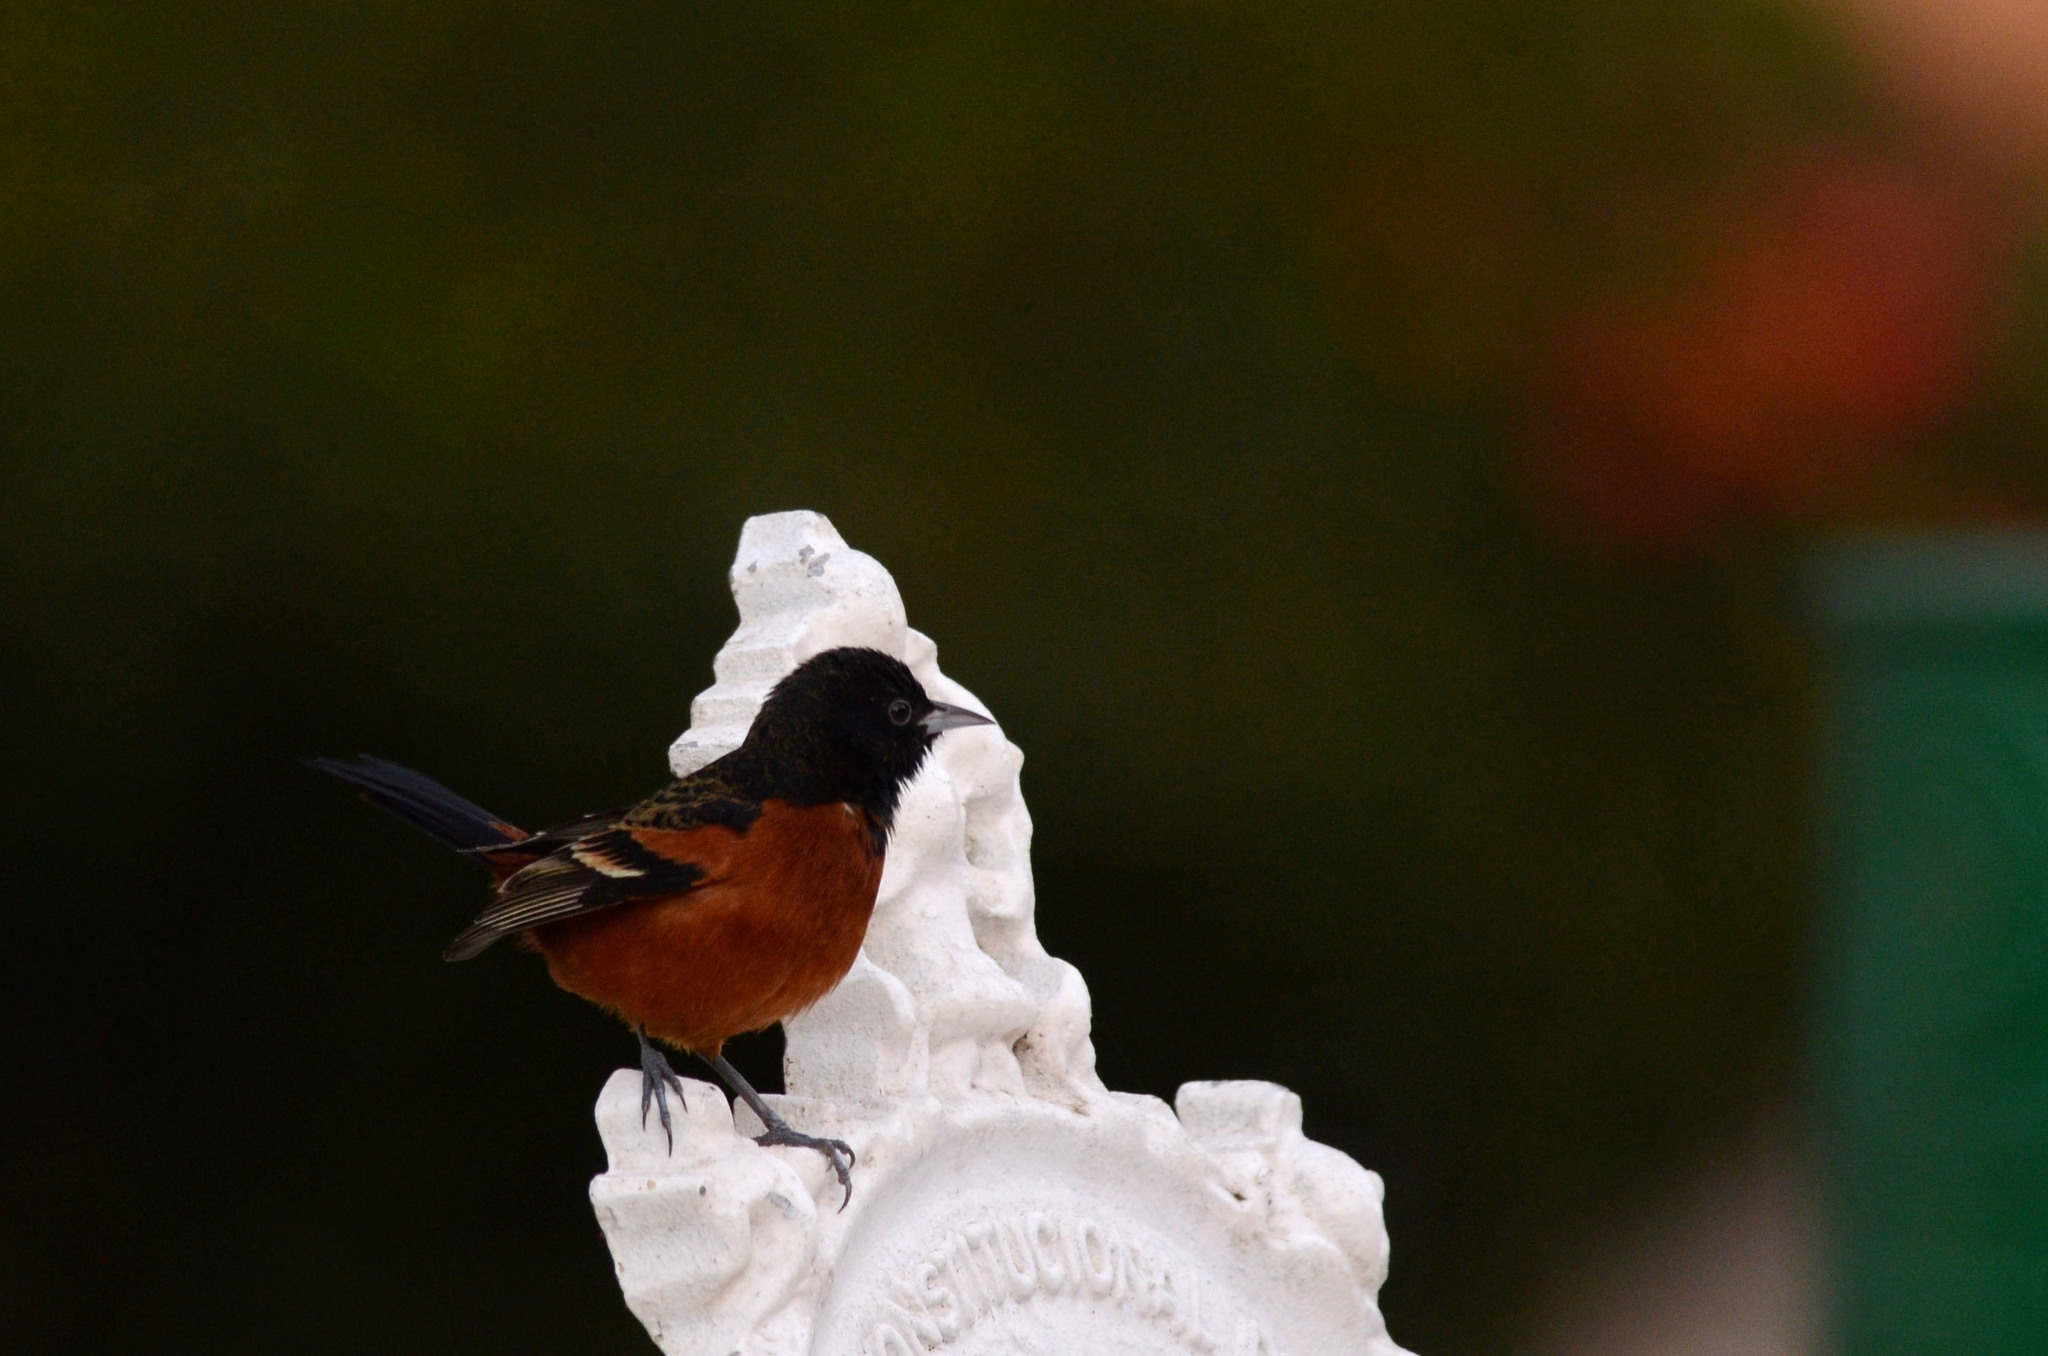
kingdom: Animalia
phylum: Chordata
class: Aves
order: Passeriformes
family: Icteridae
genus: Icterus
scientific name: Icterus spurius
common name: Orchard oriole
